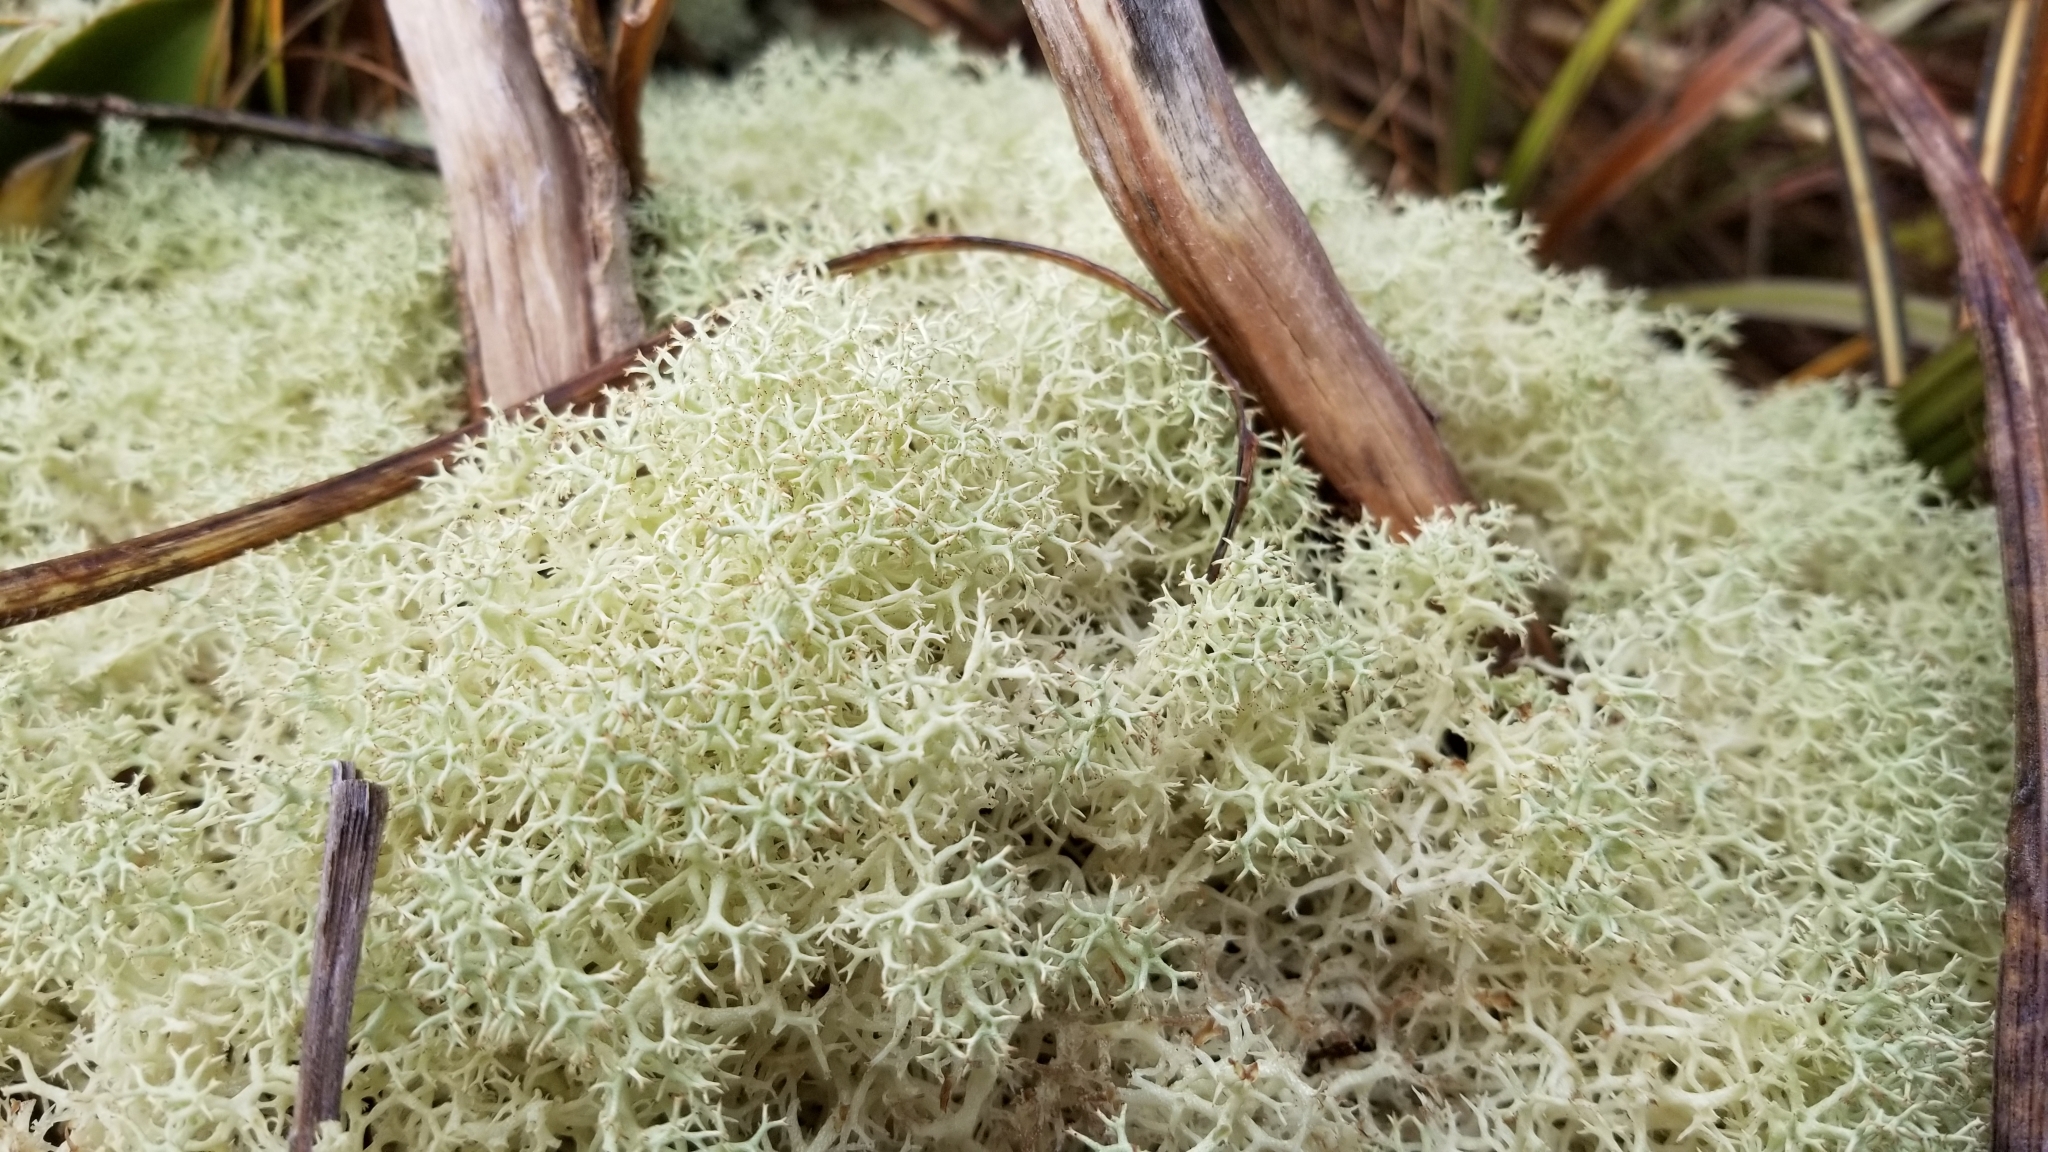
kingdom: Fungi
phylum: Ascomycota
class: Lecanoromycetes
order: Lecanorales
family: Cladoniaceae
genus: Cladonia
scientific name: Cladonia confusa
